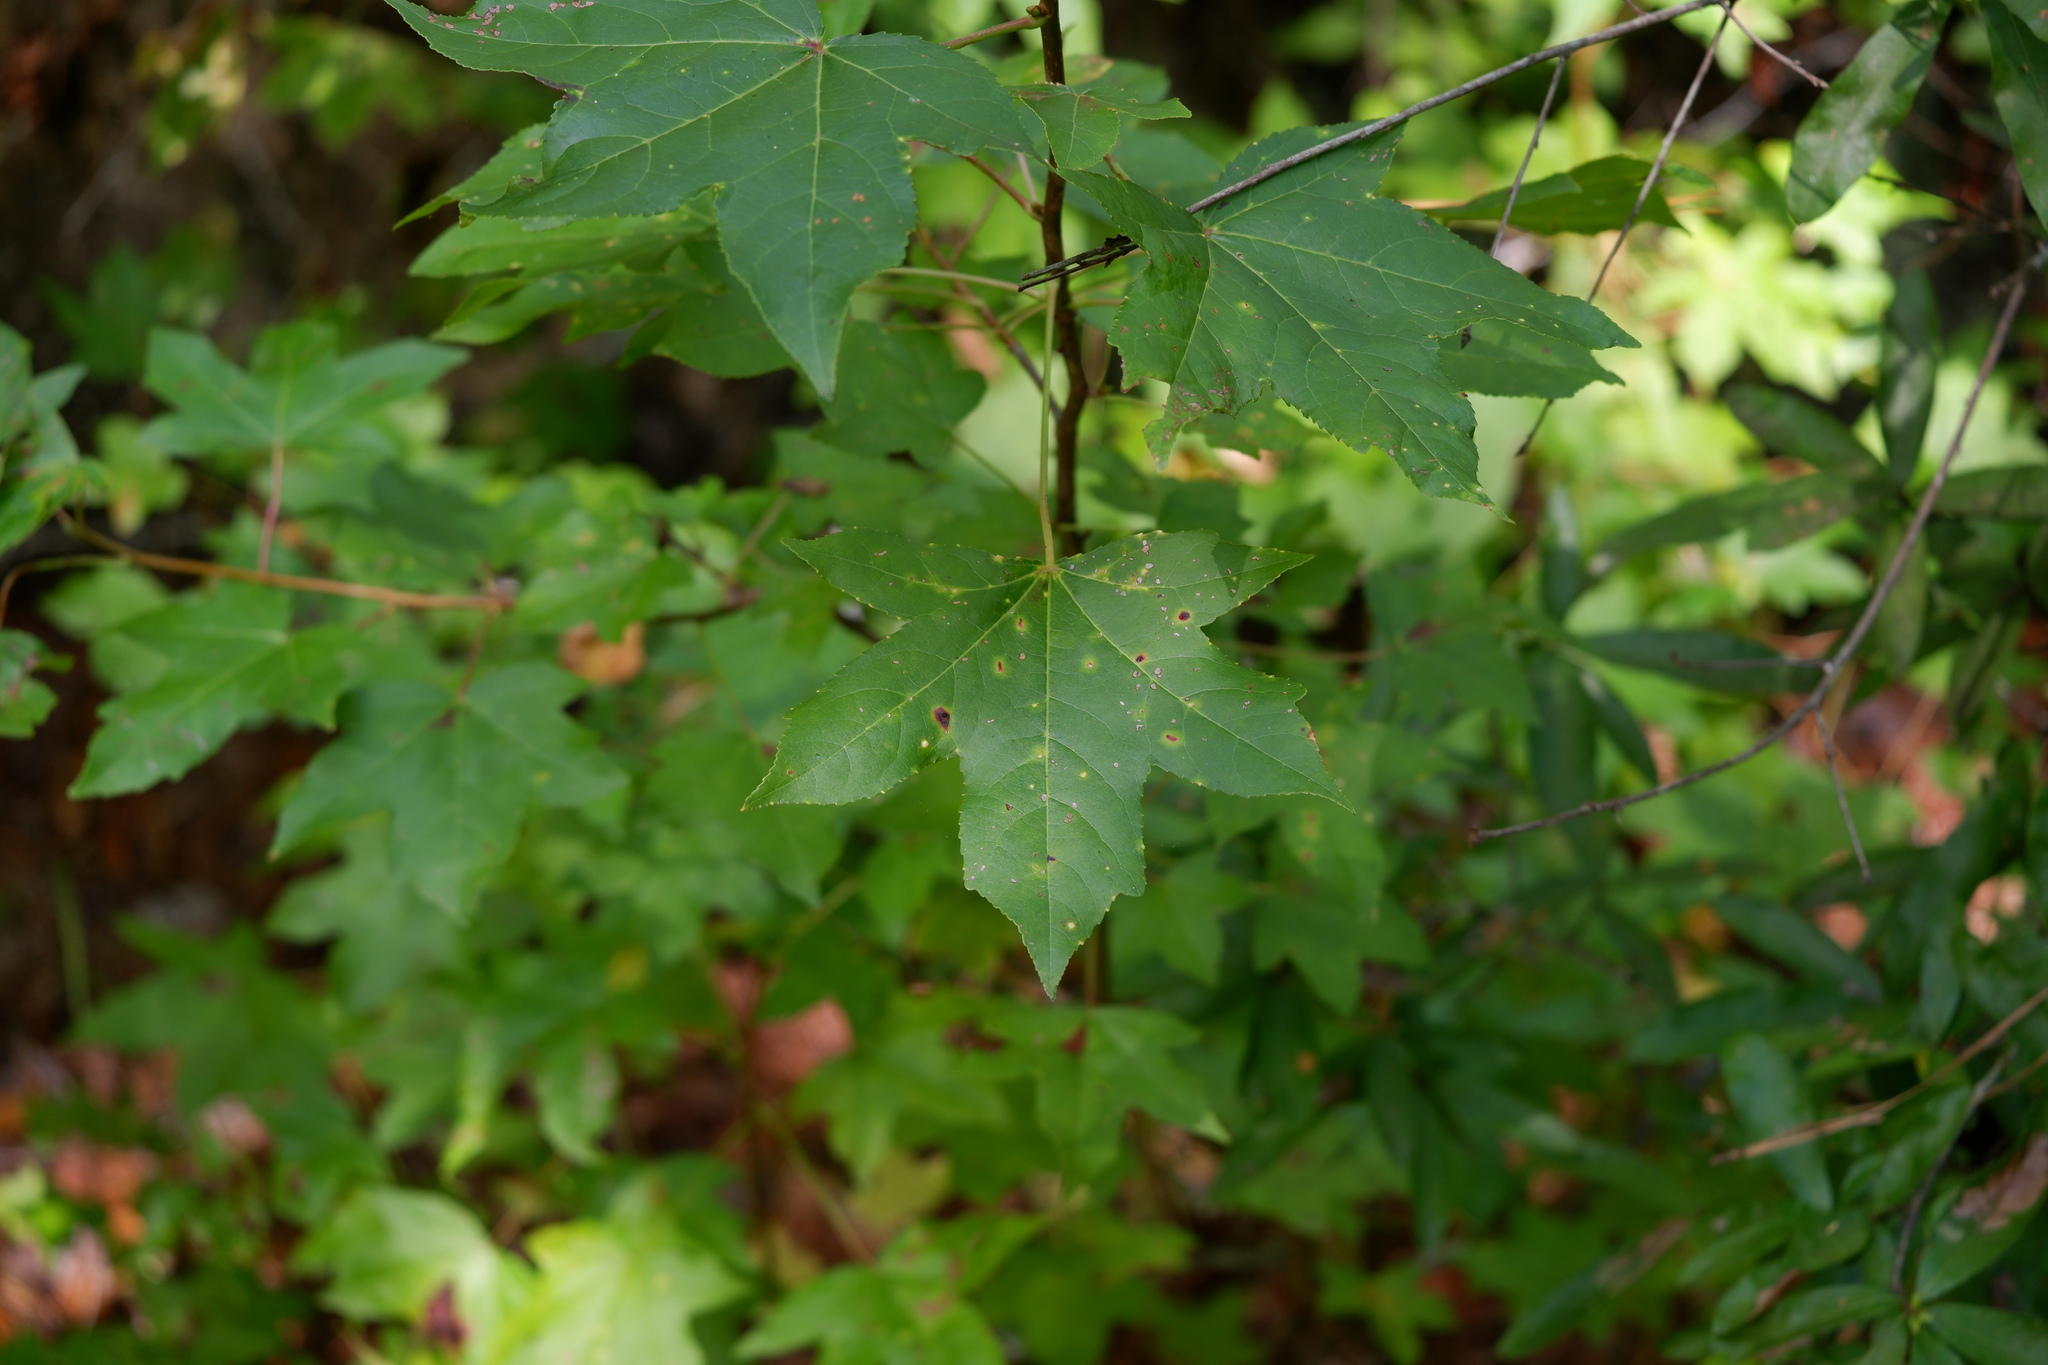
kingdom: Plantae
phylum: Tracheophyta
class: Magnoliopsida
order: Saxifragales
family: Altingiaceae
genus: Liquidambar
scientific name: Liquidambar styraciflua
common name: Sweet gum
